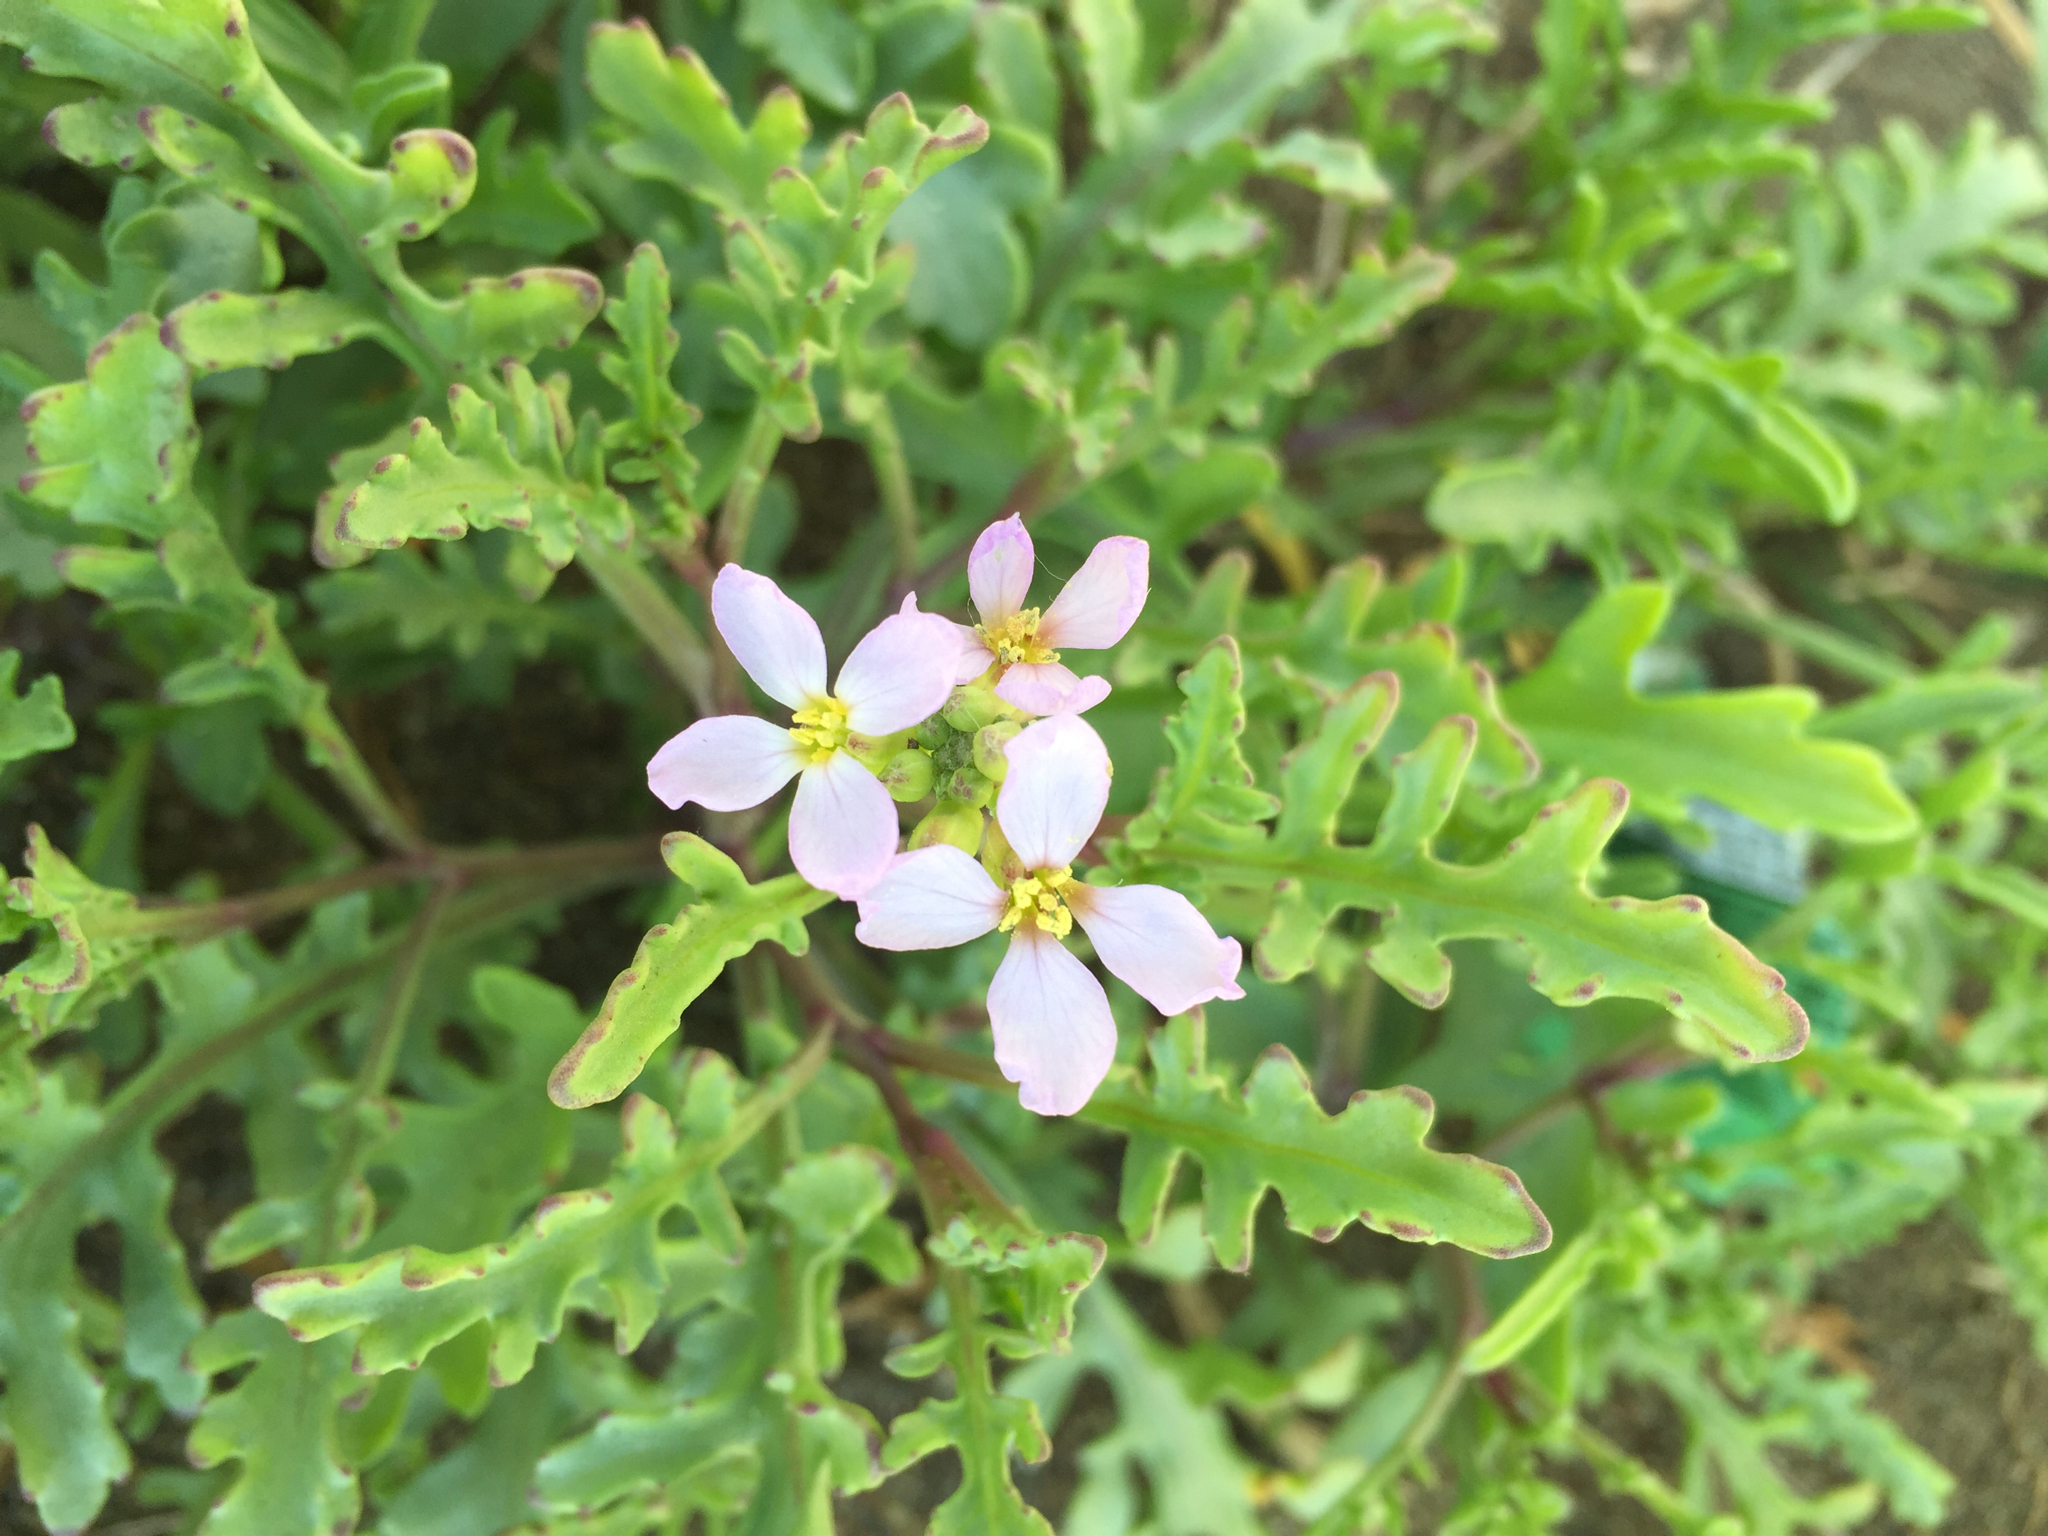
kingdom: Plantae
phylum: Tracheophyta
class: Magnoliopsida
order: Brassicales
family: Brassicaceae
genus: Cakile
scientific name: Cakile maritima
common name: Sea rocket
